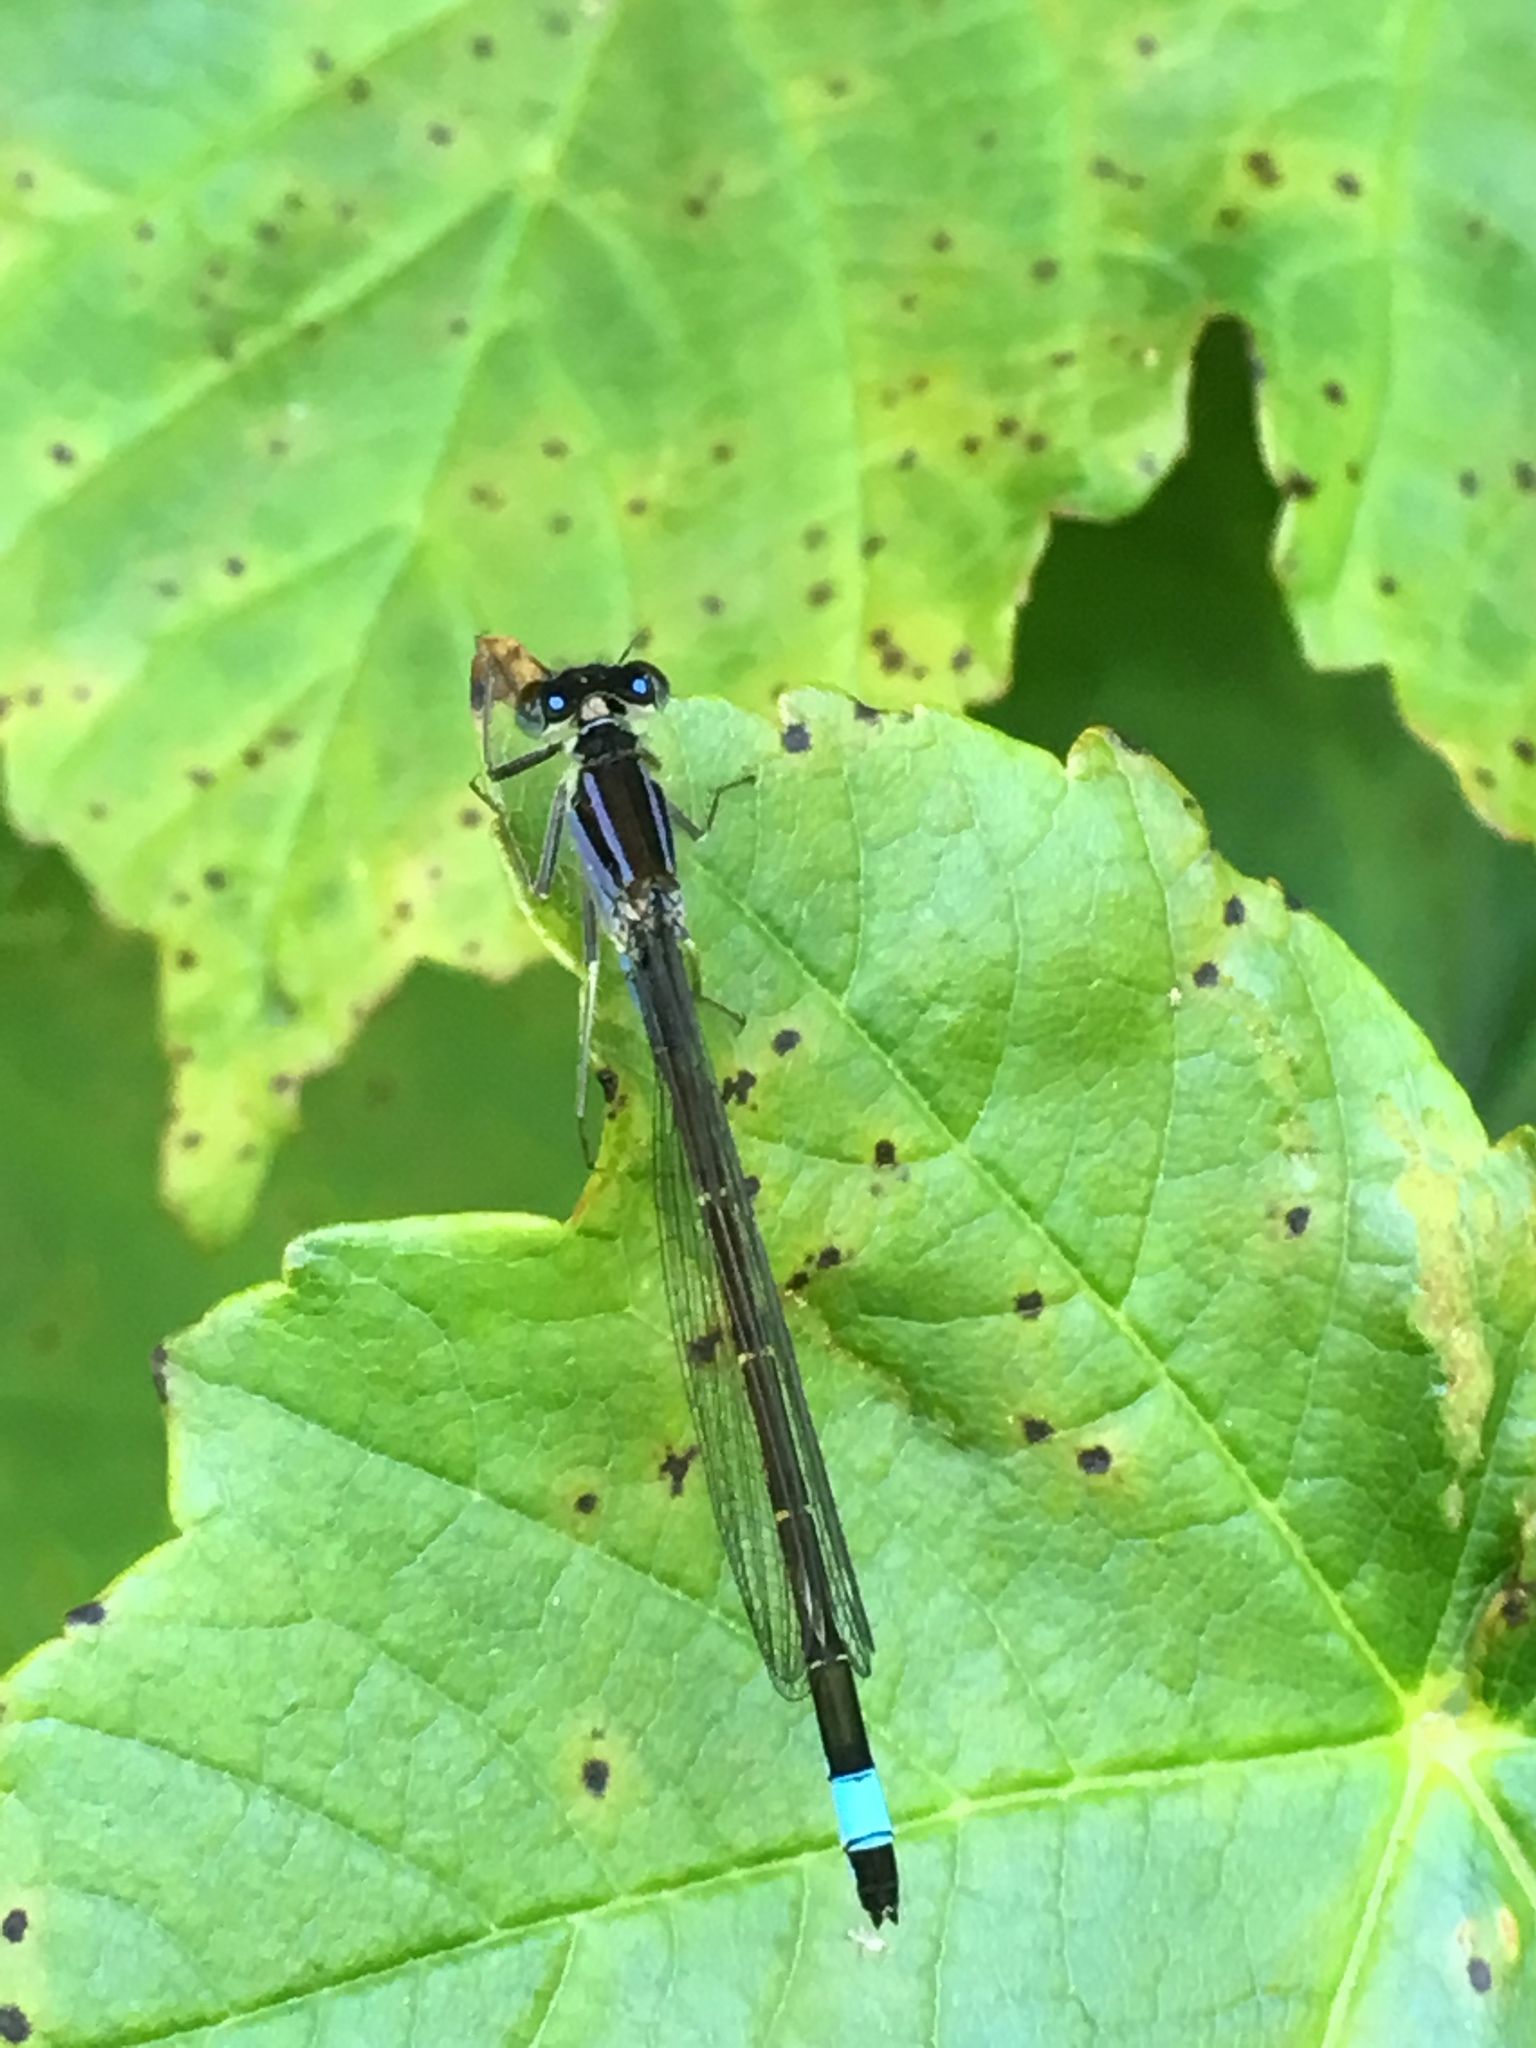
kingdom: Animalia
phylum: Arthropoda
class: Insecta
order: Odonata
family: Coenagrionidae
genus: Ischnura
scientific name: Ischnura elegans
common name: Blue-tailed damselfly
